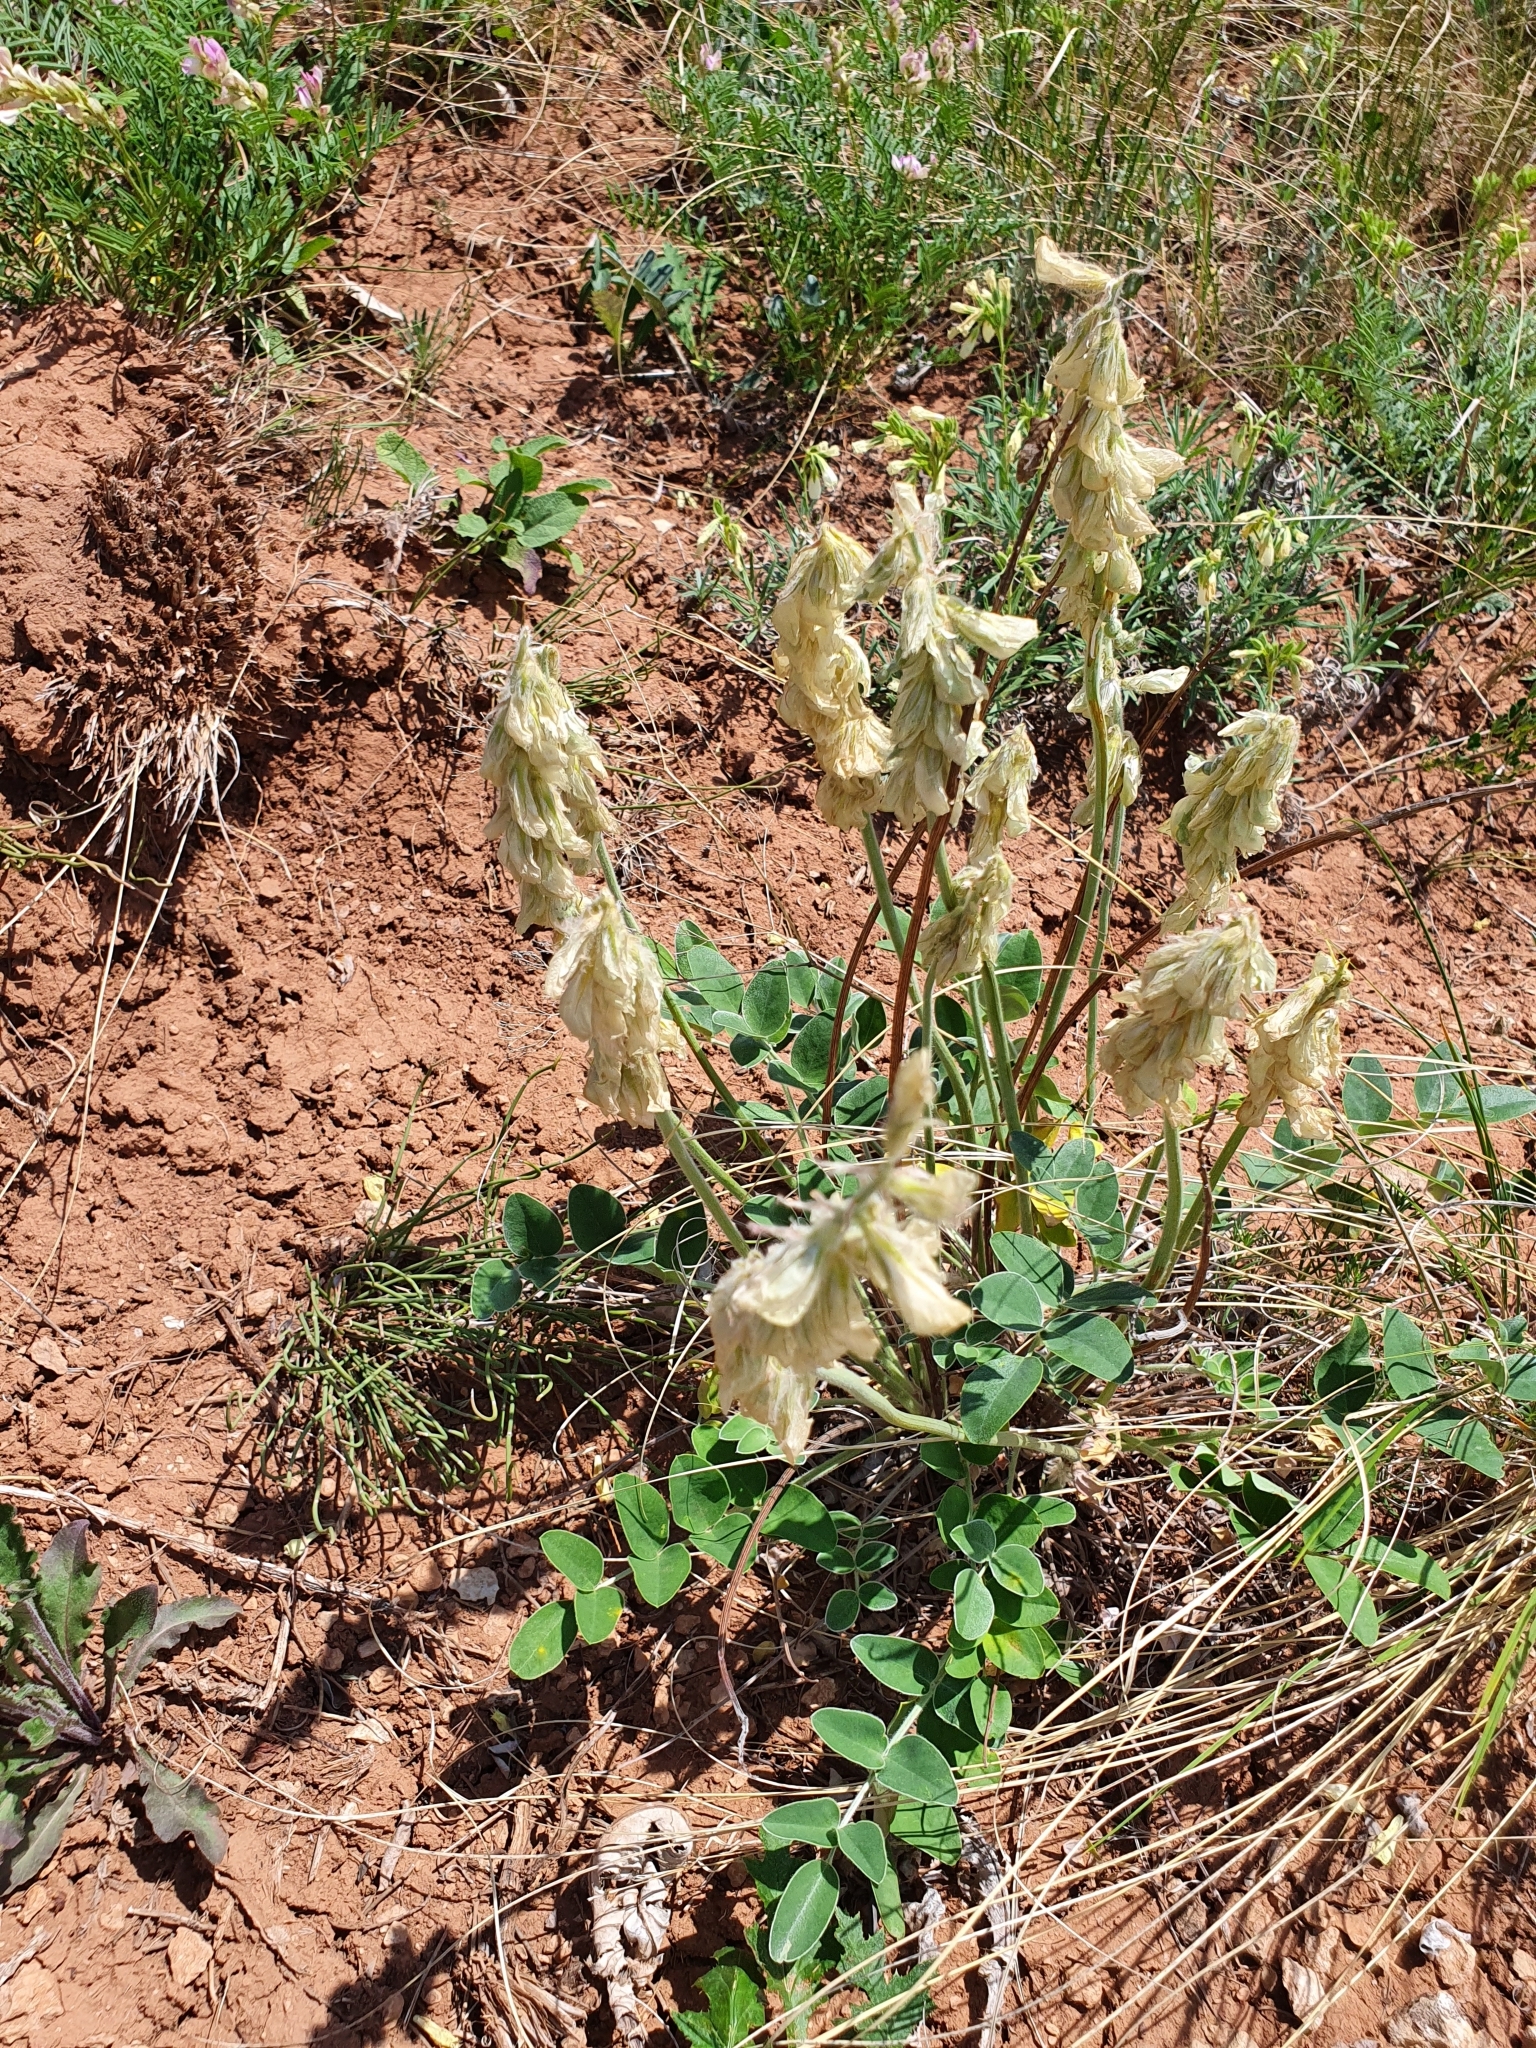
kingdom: Plantae
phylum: Tracheophyta
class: Magnoliopsida
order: Fabales
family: Fabaceae
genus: Hedysarum
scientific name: Hedysarum grandiflorum
